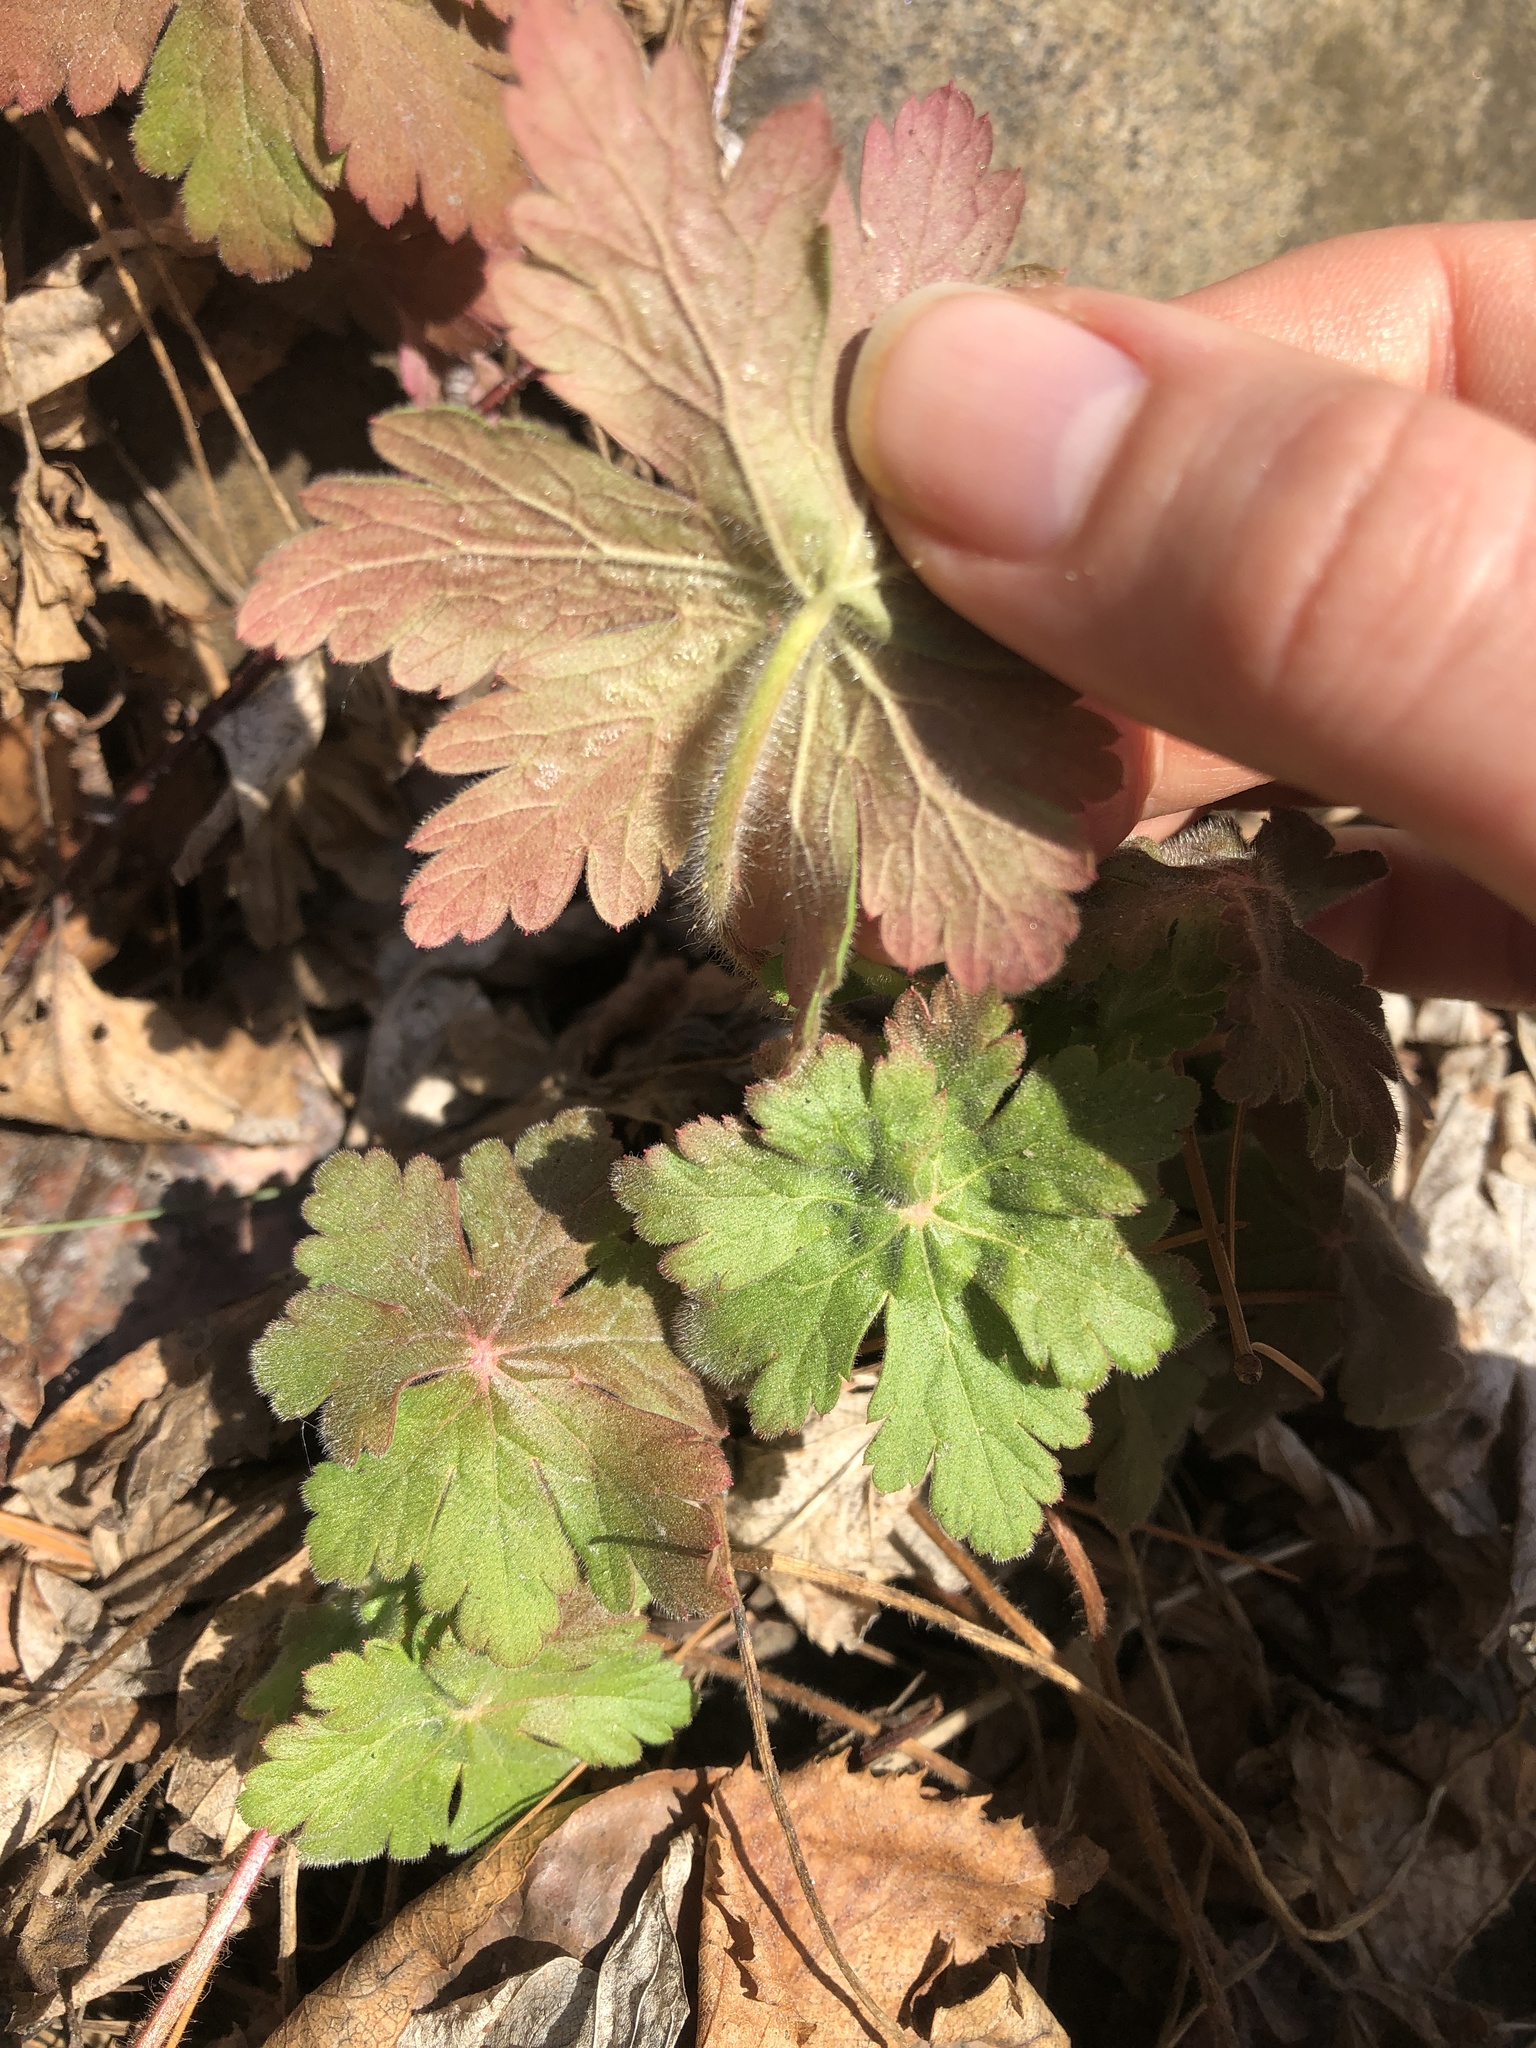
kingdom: Plantae
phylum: Tracheophyta
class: Magnoliopsida
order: Geraniales
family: Geraniaceae
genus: Geranium
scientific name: Geranium macrorrhizum
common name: Rock crane's-bill
